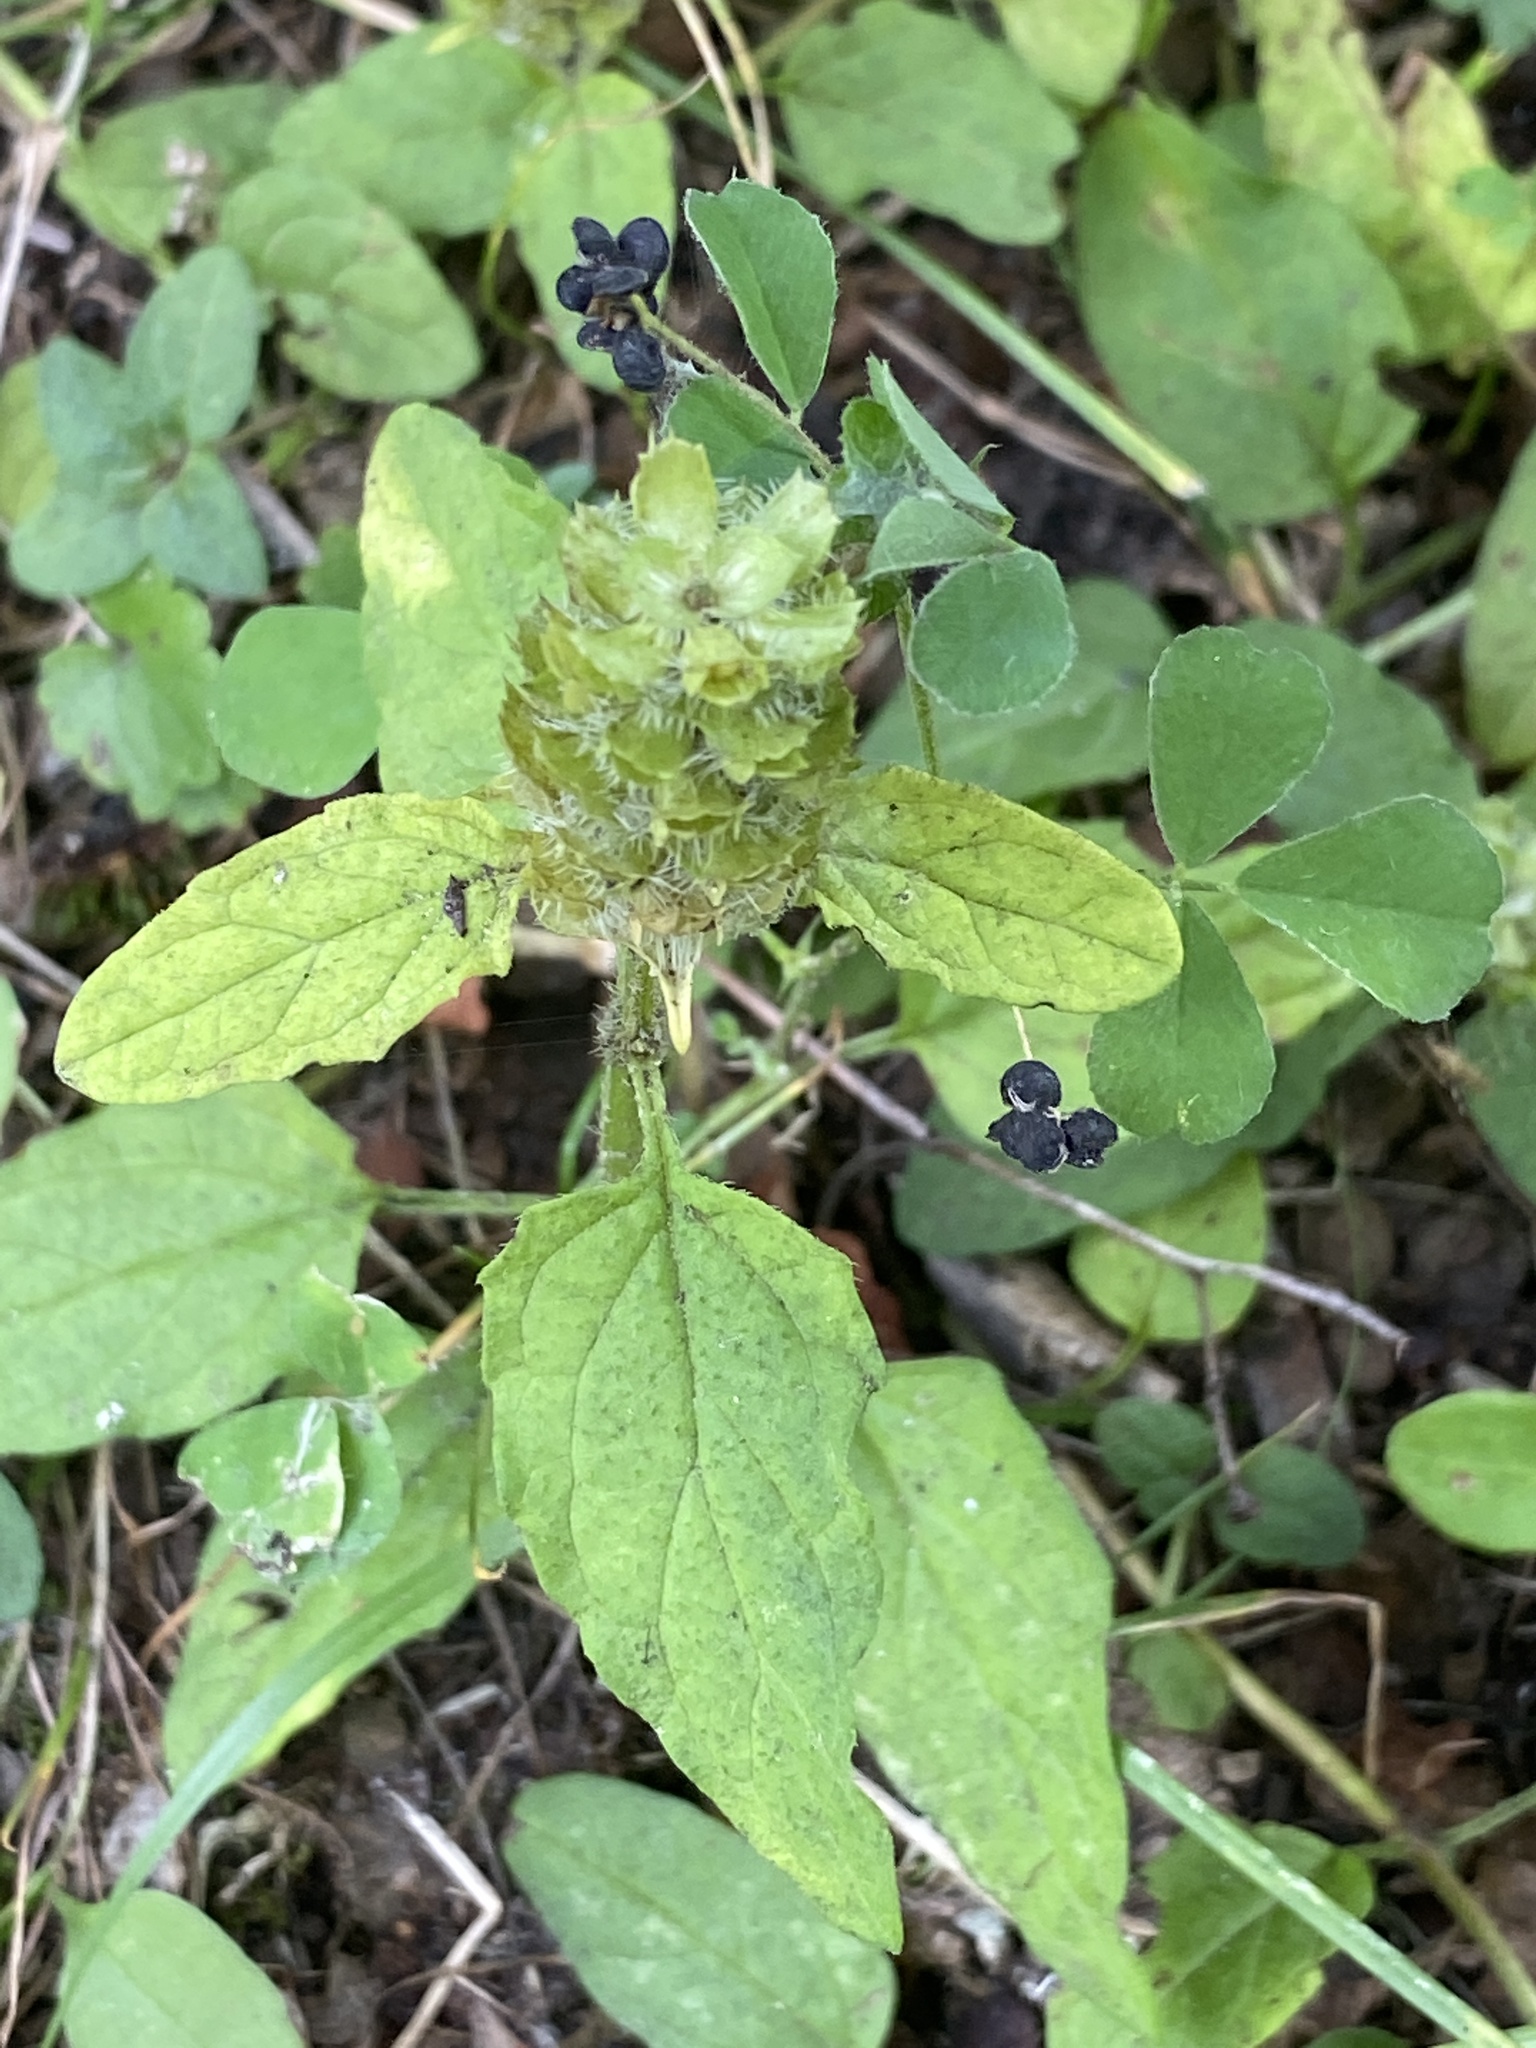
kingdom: Plantae
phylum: Tracheophyta
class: Magnoliopsida
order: Lamiales
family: Lamiaceae
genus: Prunella
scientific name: Prunella vulgaris
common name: Heal-all
